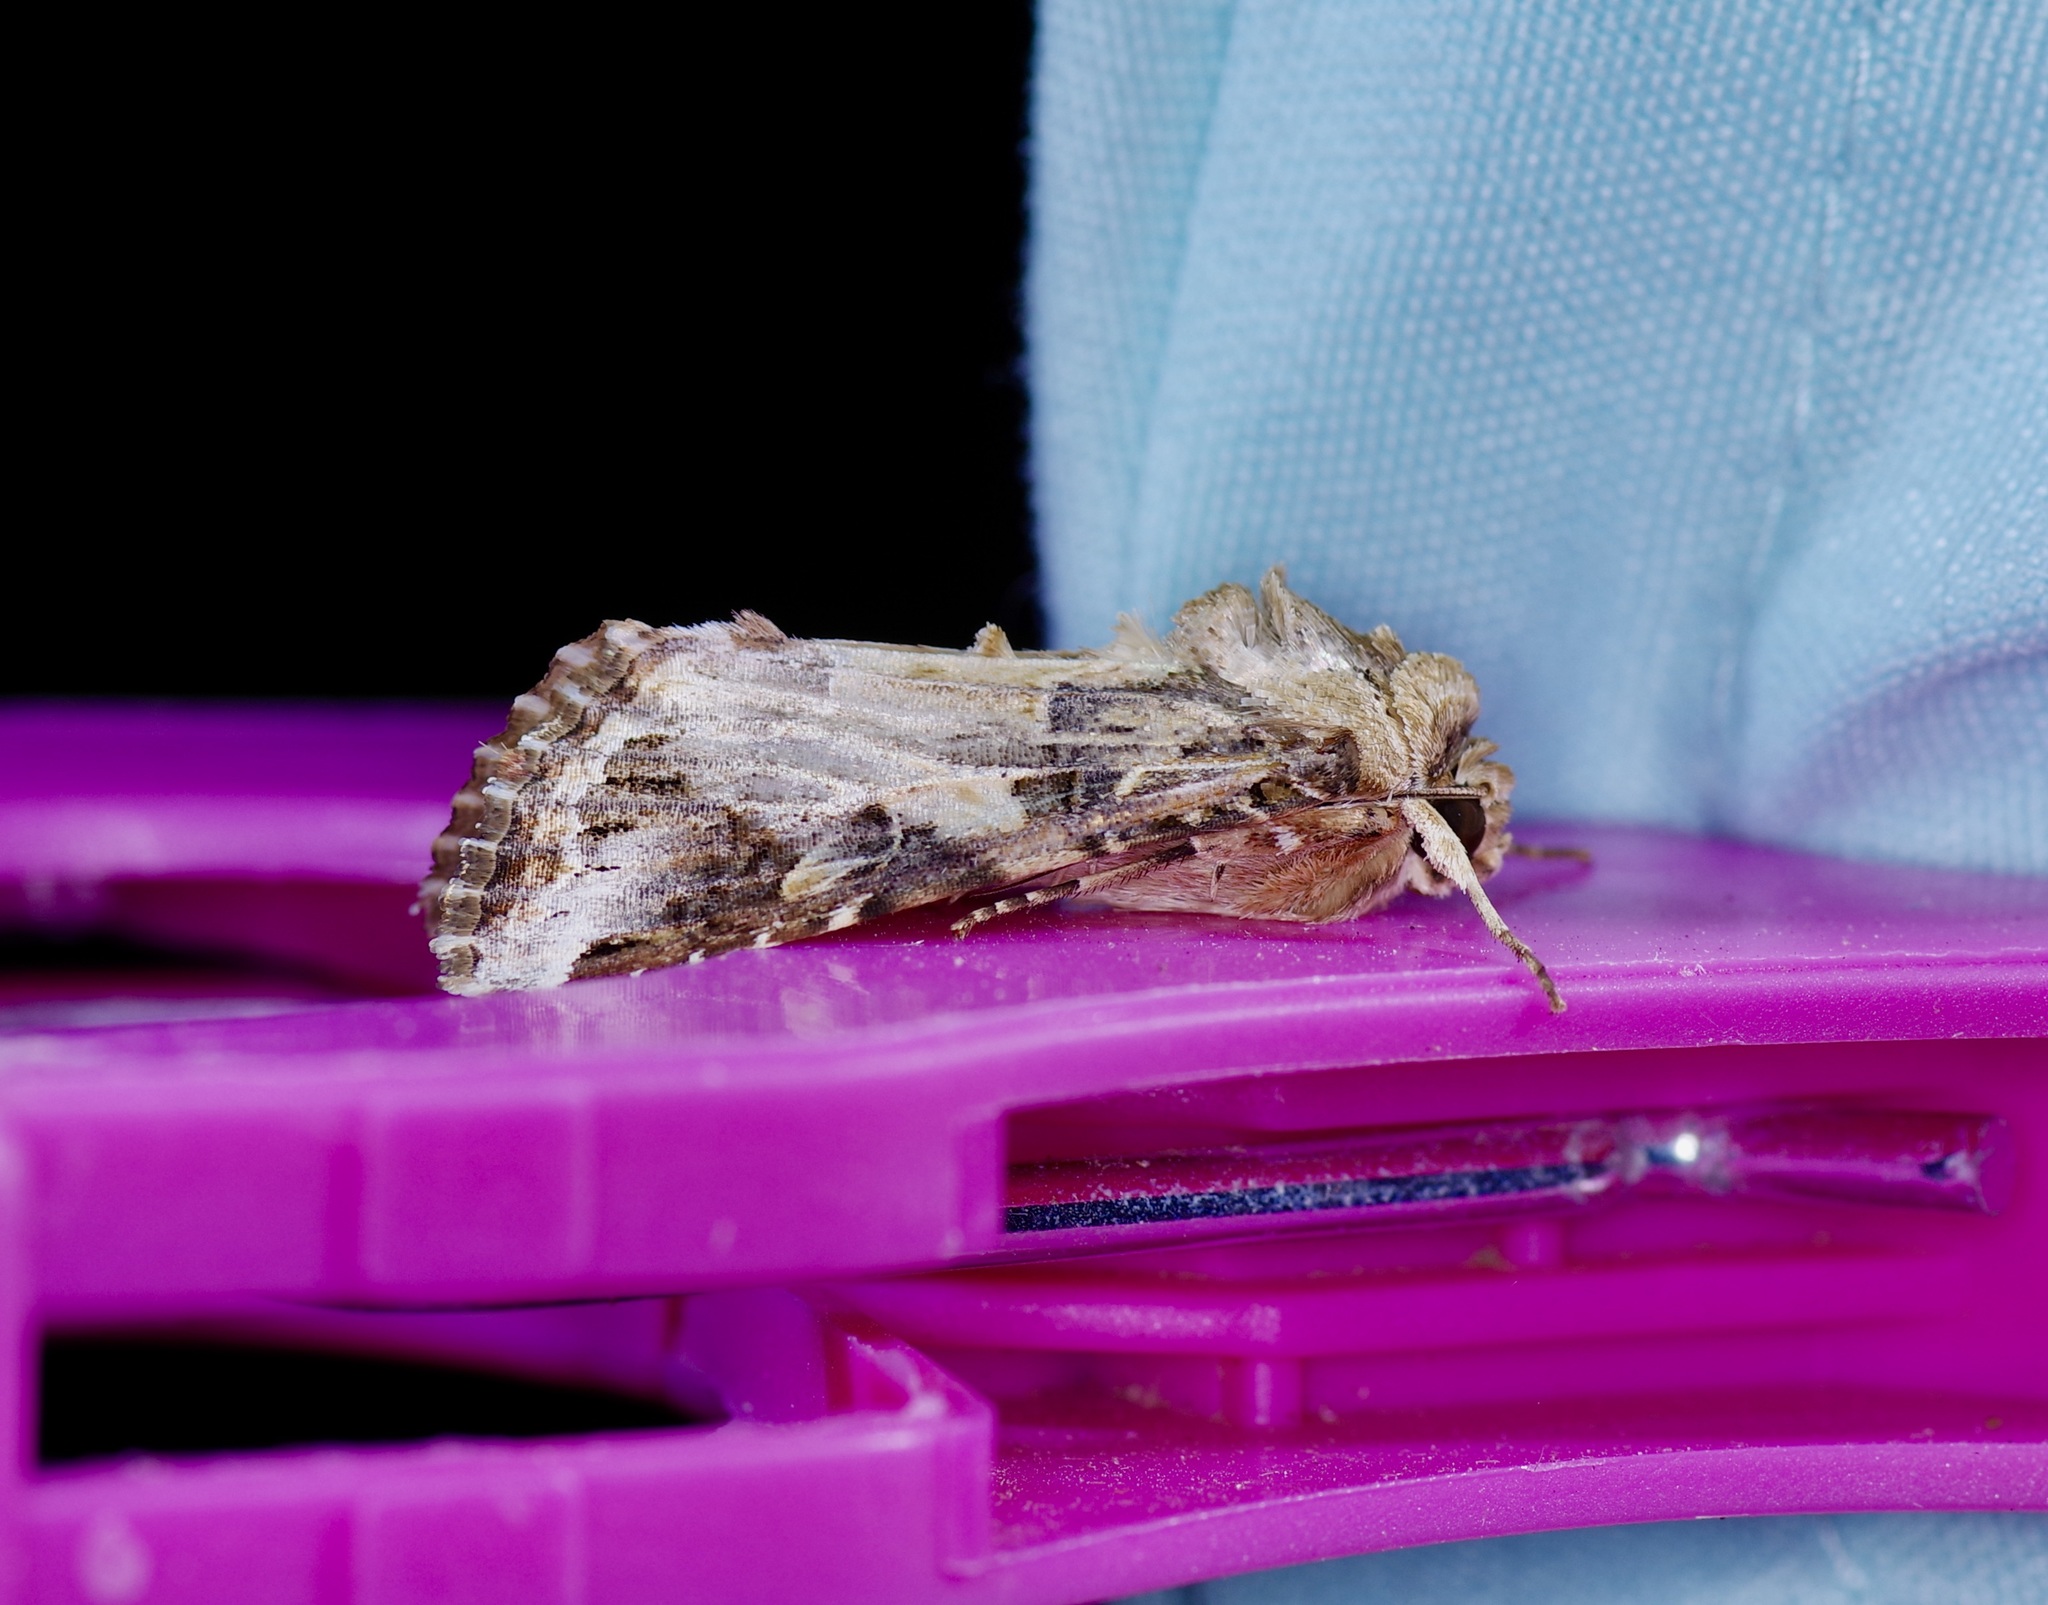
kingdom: Animalia
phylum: Arthropoda
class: Insecta
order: Lepidoptera
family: Noctuidae
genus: Spodoptera
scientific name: Spodoptera ornithogalli
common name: Yellow-striped armyworm
